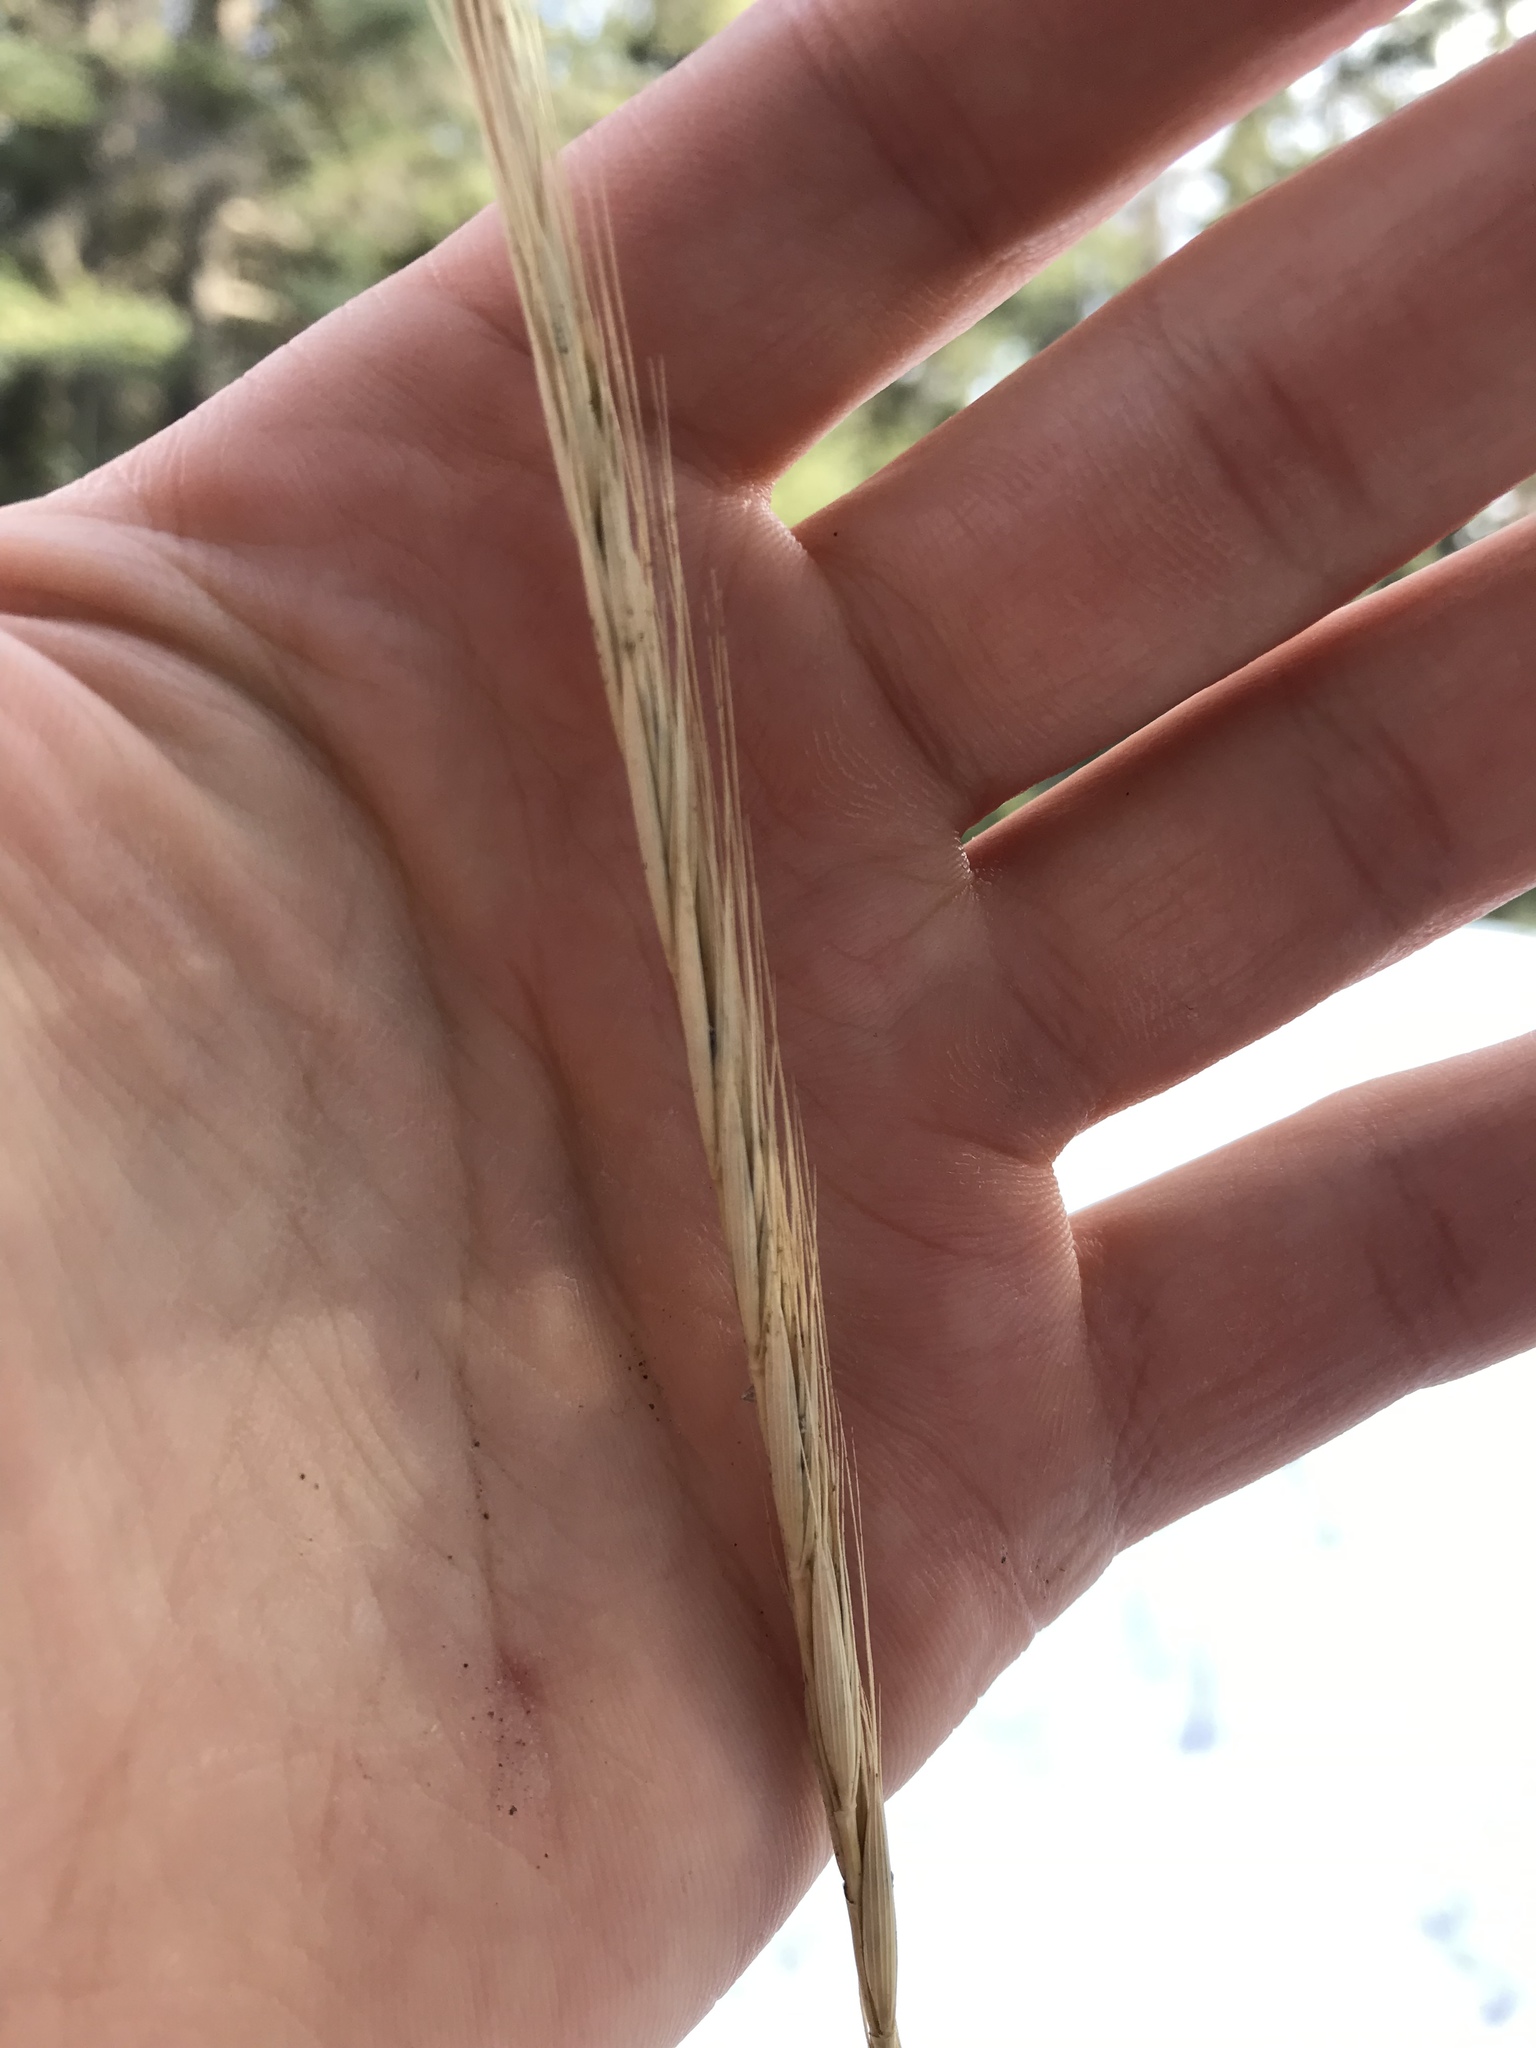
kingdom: Plantae
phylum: Tracheophyta
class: Liliopsida
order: Poales
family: Poaceae
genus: Elymus
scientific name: Elymus violaceus
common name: Arctic wheatgrass
